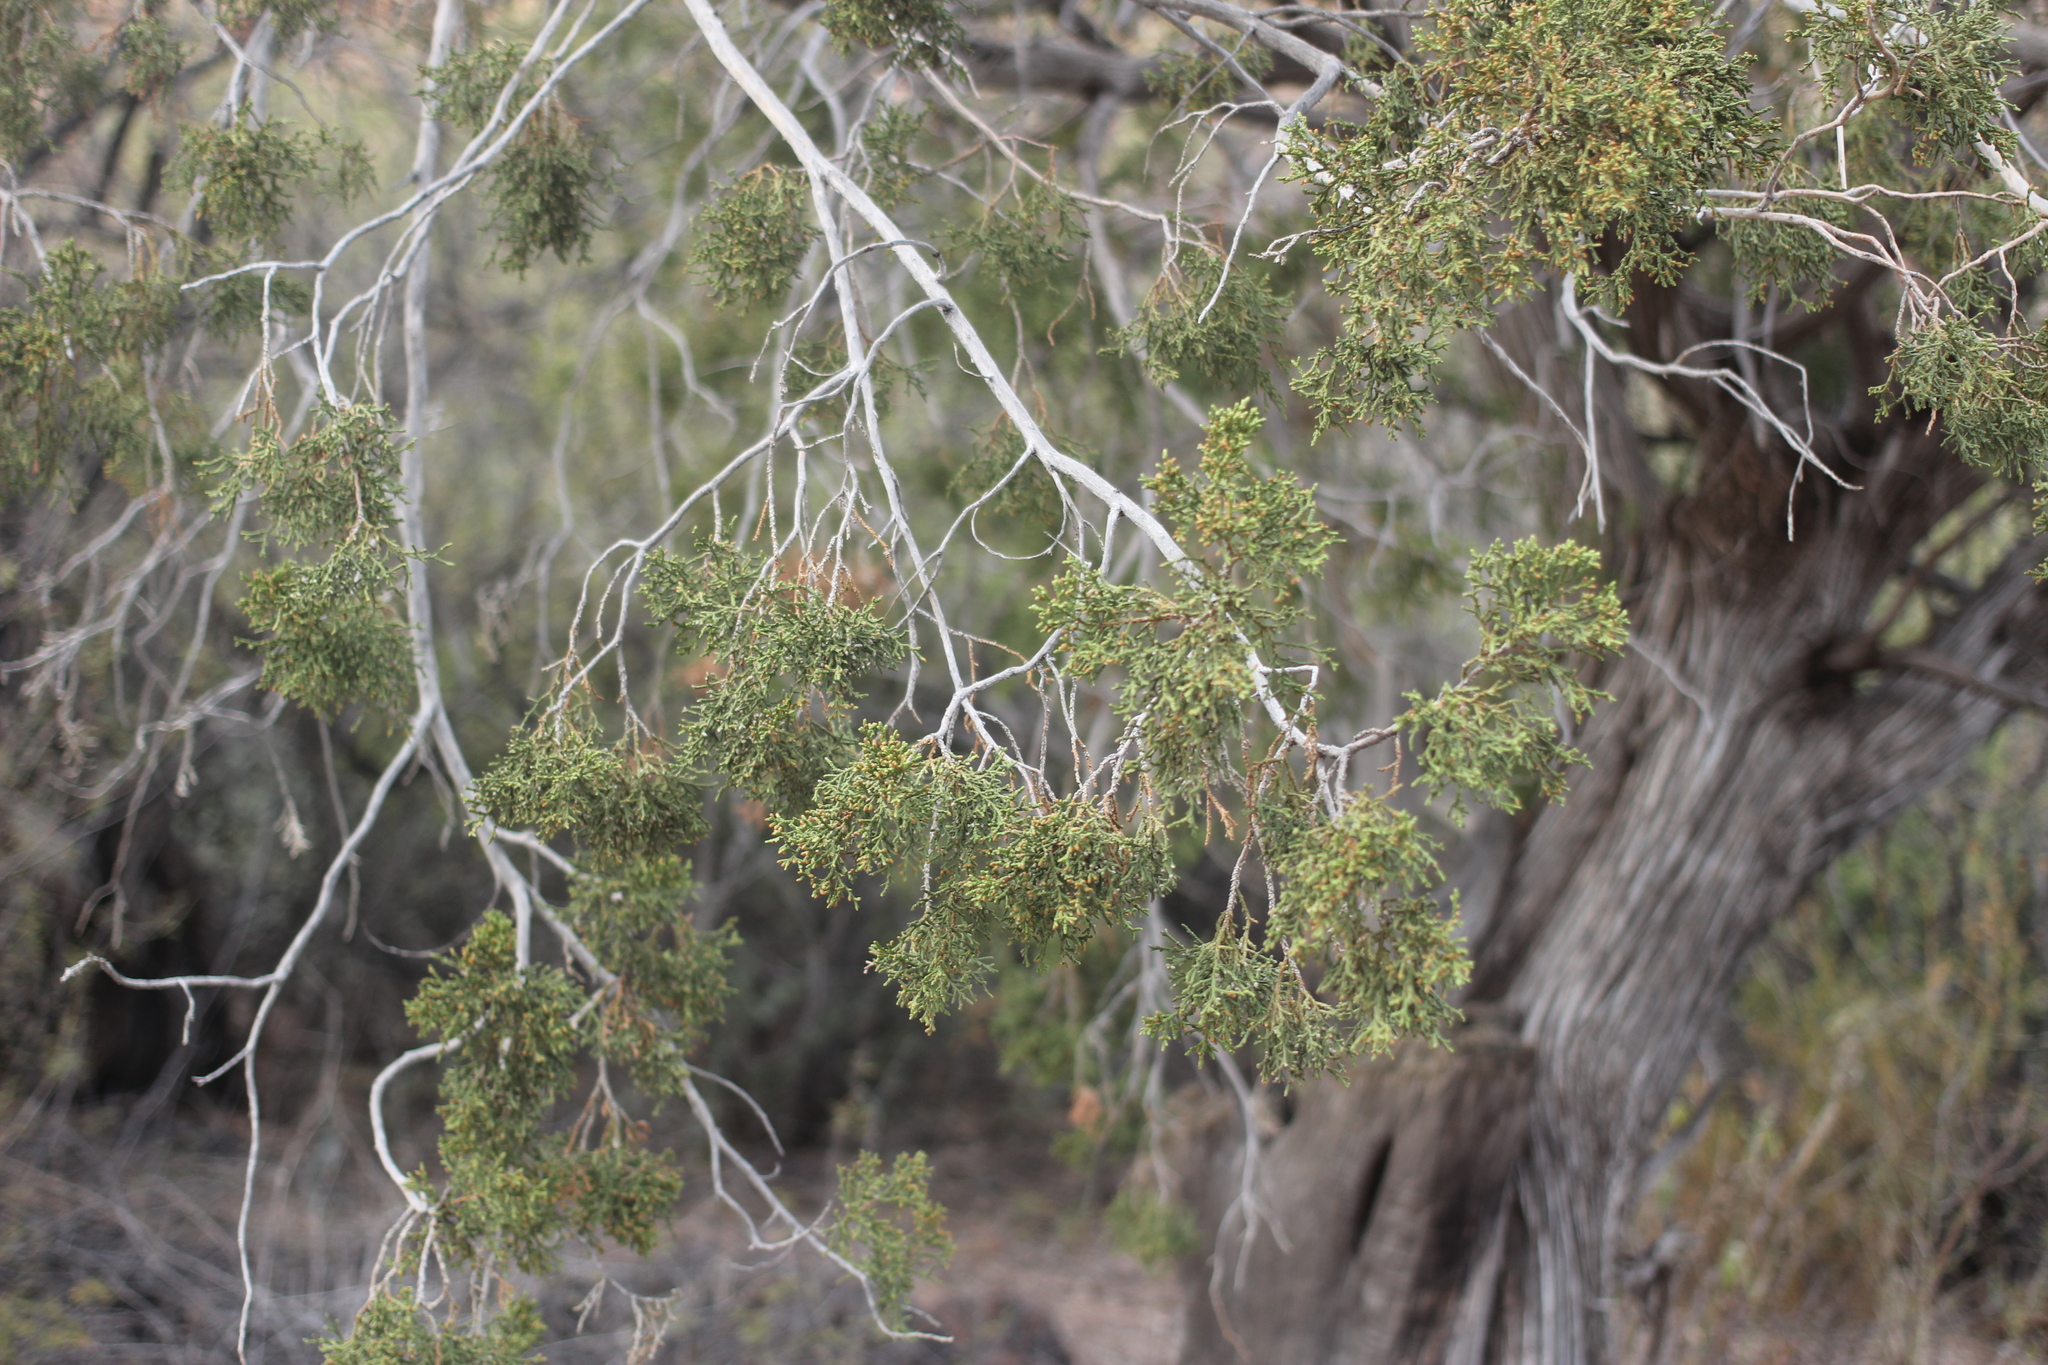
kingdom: Plantae
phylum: Tracheophyta
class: Pinopsida
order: Pinales
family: Cupressaceae
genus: Juniperus
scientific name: Juniperus arizonica
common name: Arizona juniper
